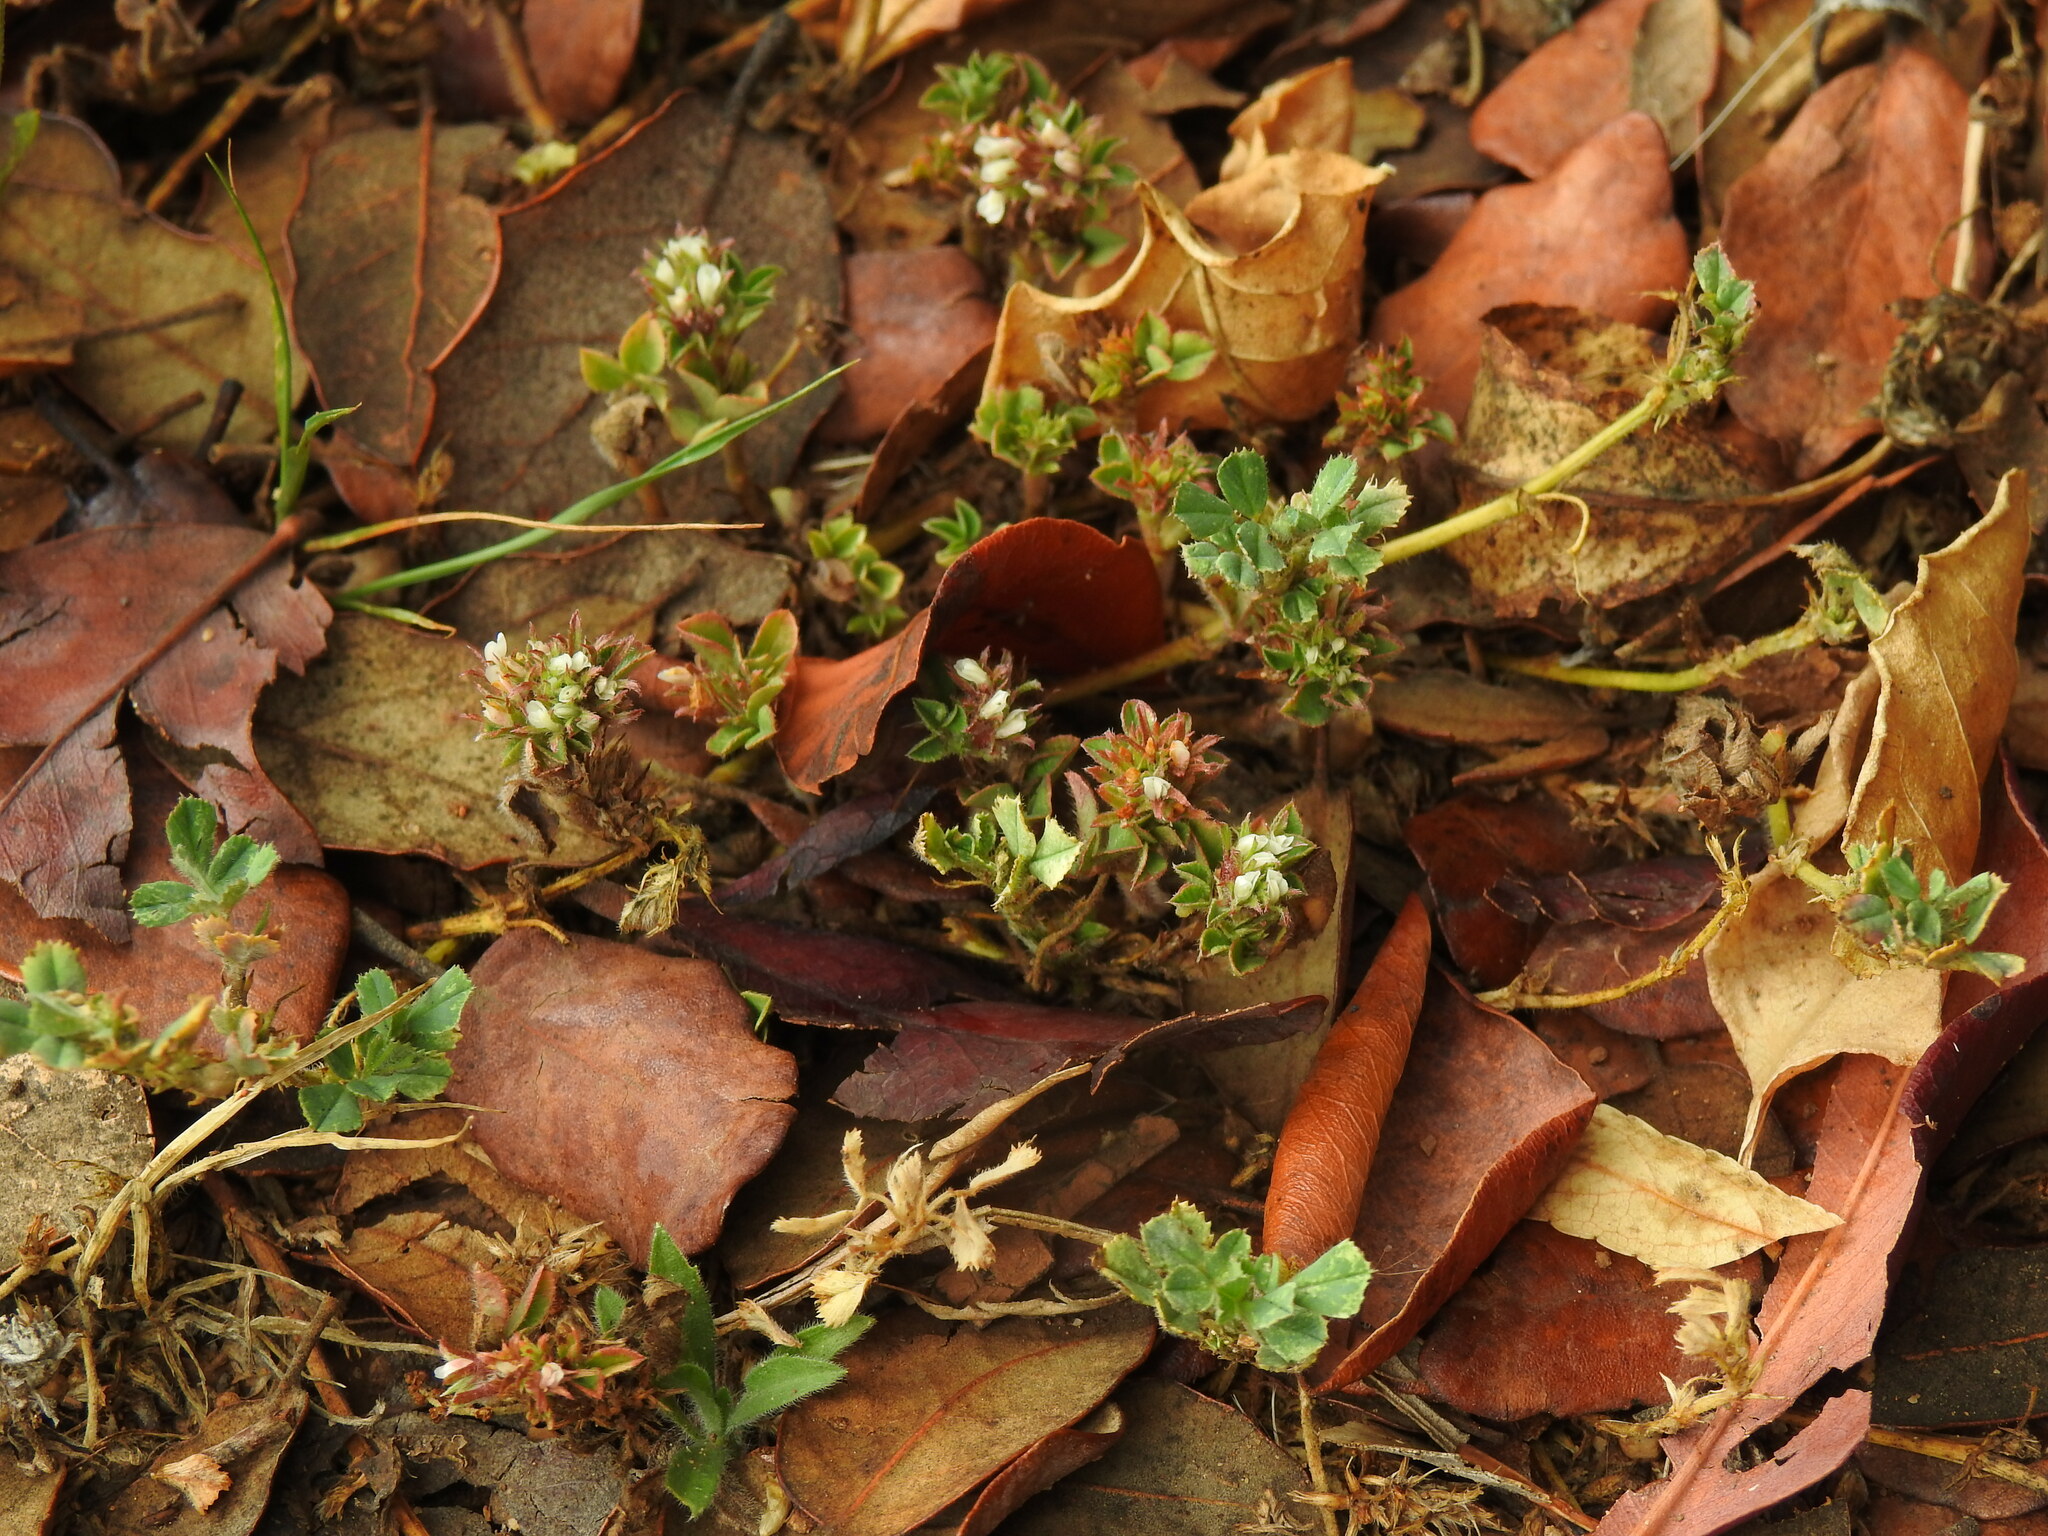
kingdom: Plantae
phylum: Tracheophyta
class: Magnoliopsida
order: Fabales
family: Fabaceae
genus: Trifolium
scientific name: Trifolium scabrum
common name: Rough clover
